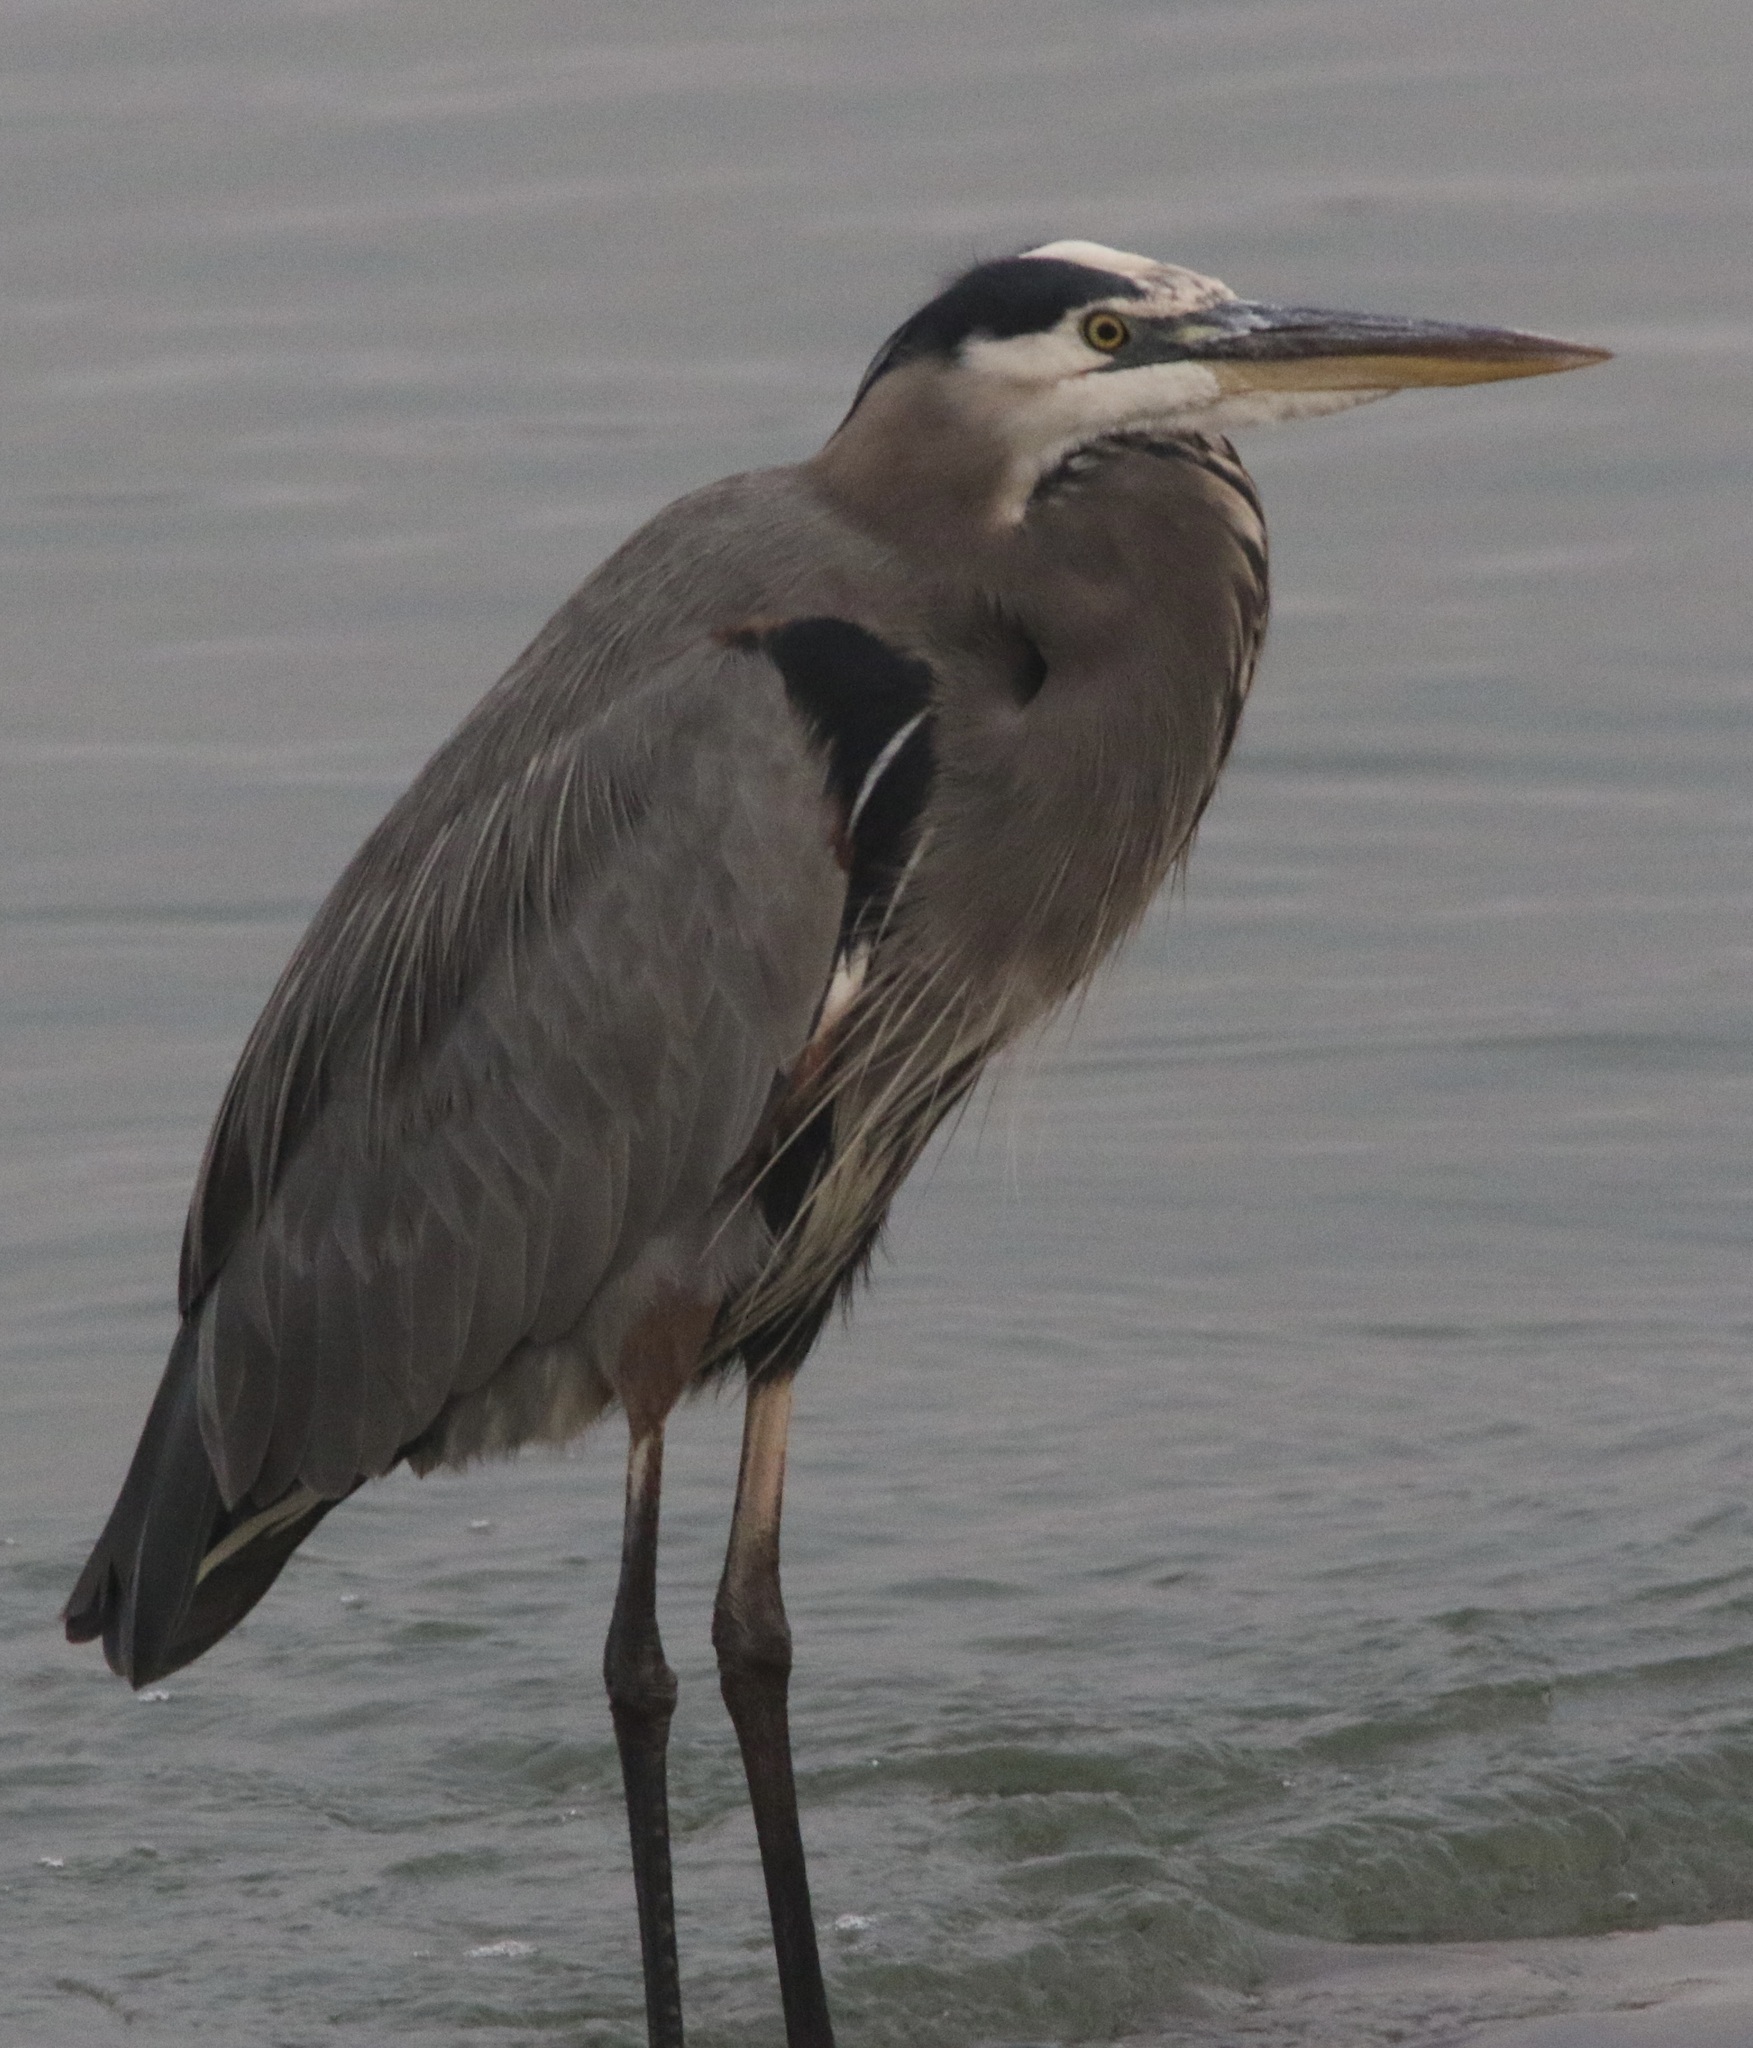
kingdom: Animalia
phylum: Chordata
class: Aves
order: Pelecaniformes
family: Ardeidae
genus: Ardea
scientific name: Ardea herodias
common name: Great blue heron
